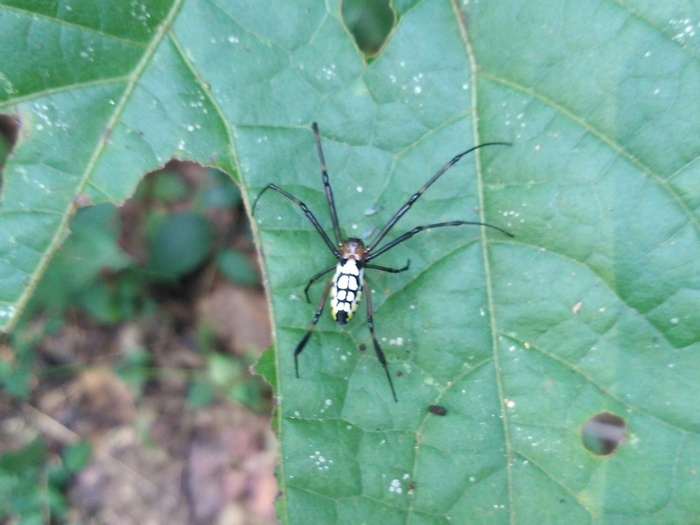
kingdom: Animalia
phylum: Arthropoda
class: Arachnida
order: Araneae
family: Tetragnathidae
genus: Leucauge
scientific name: Leucauge tessellata
